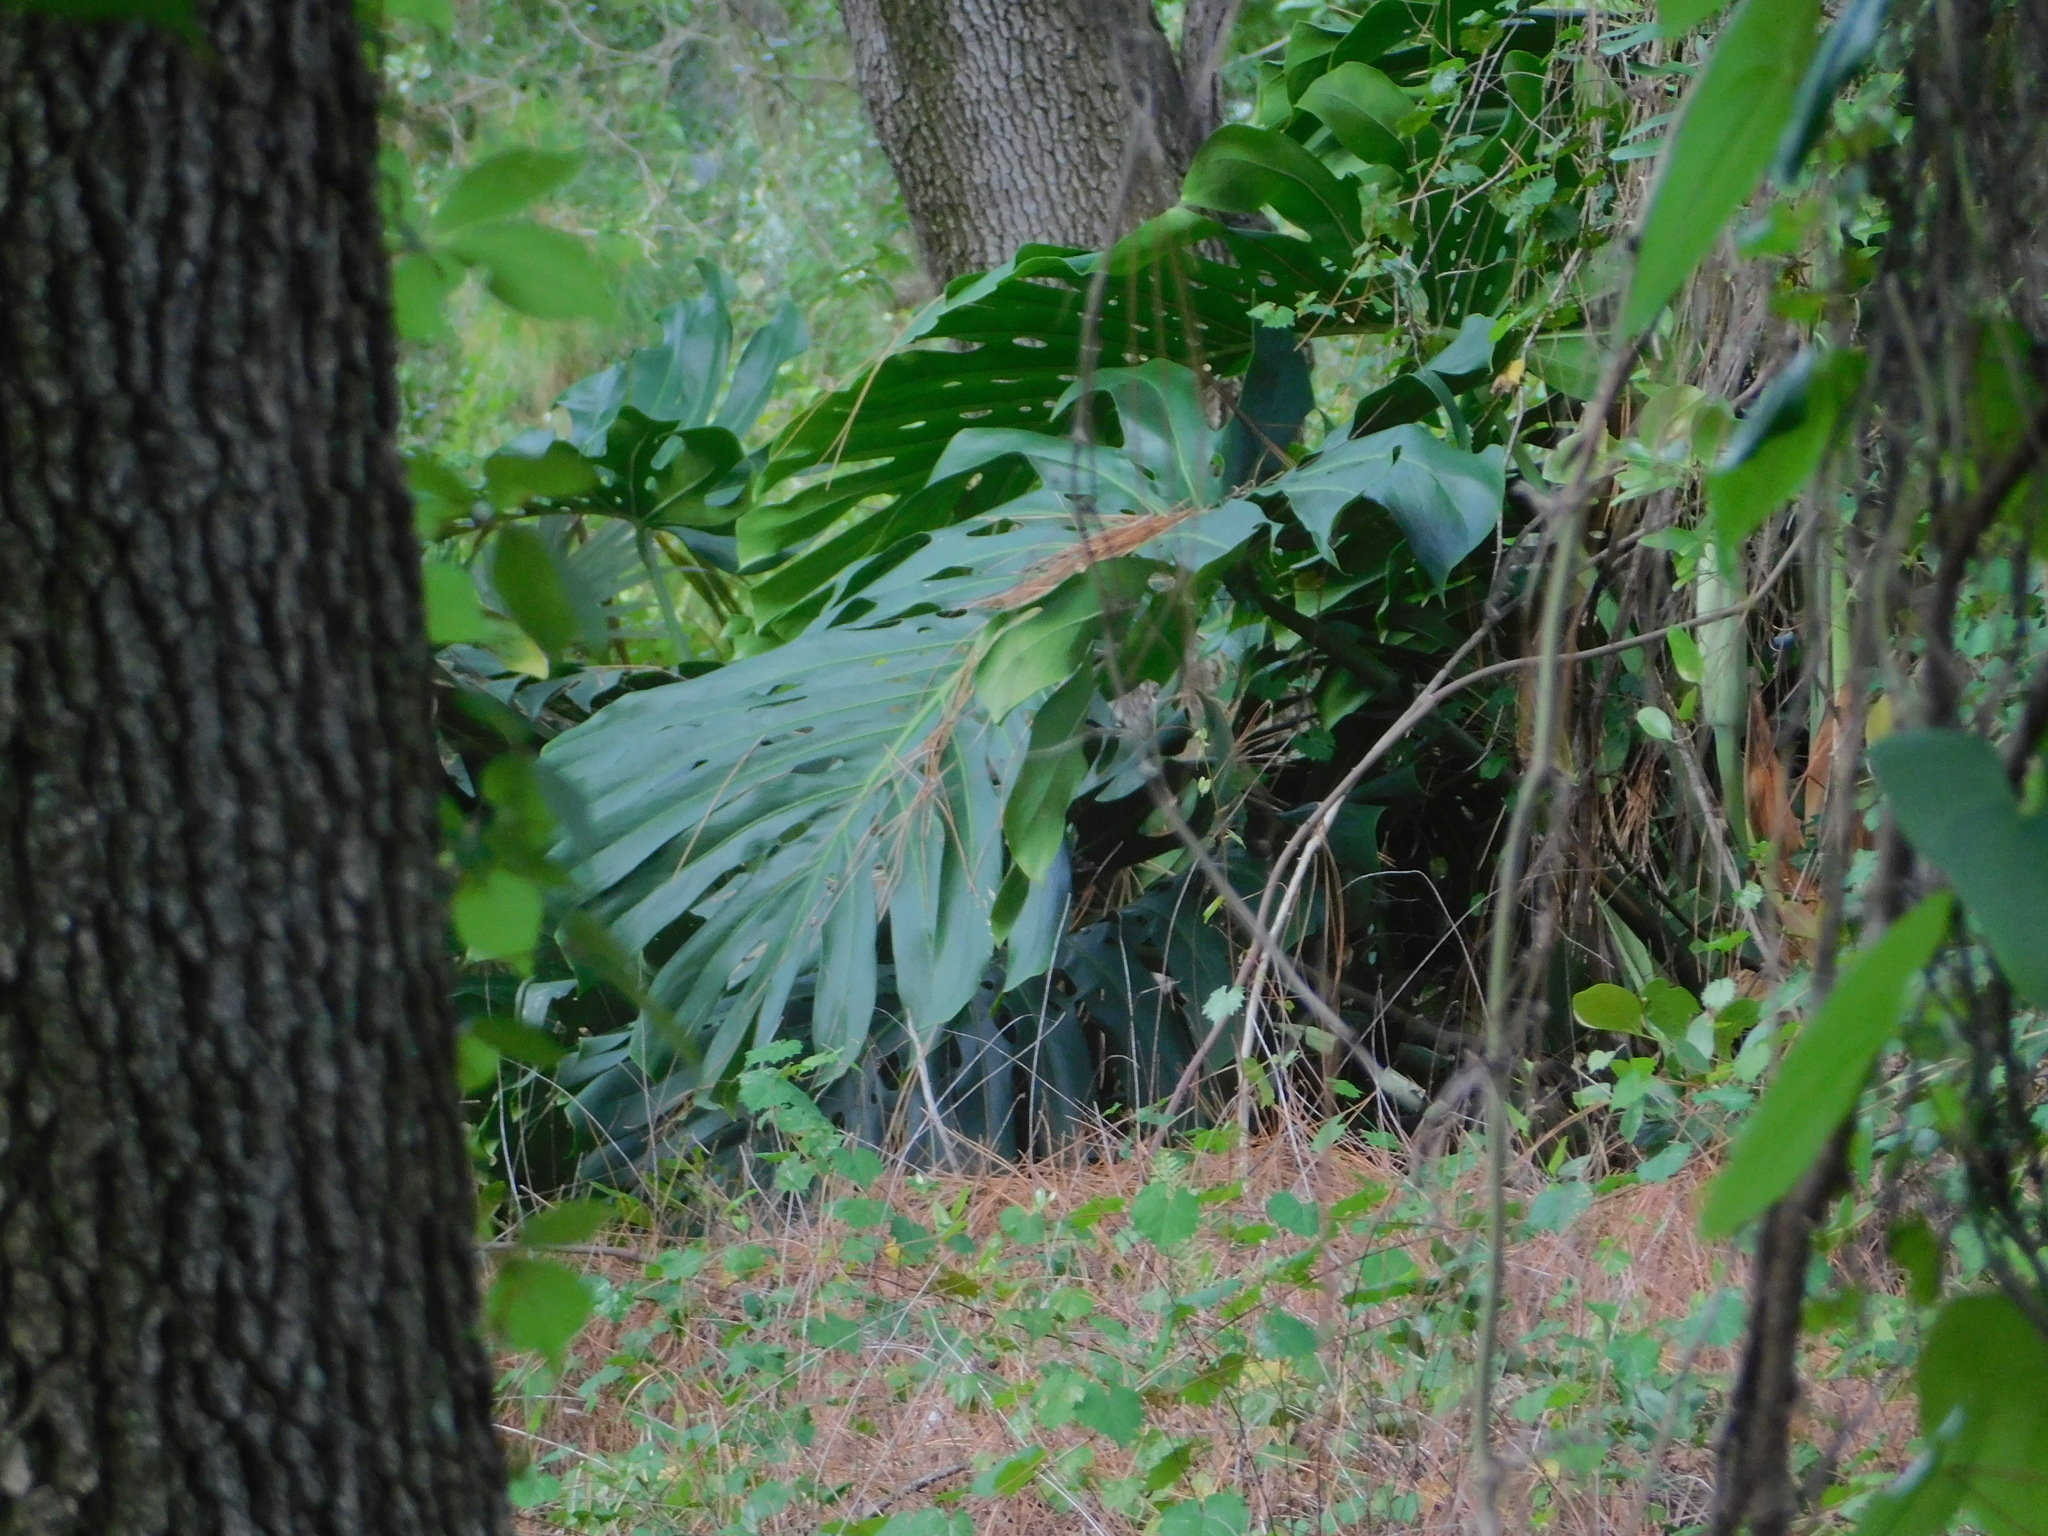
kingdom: Plantae
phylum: Tracheophyta
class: Liliopsida
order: Alismatales
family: Araceae
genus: Monstera
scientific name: Monstera deliciosa
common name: Cut-leaf-philodendron
